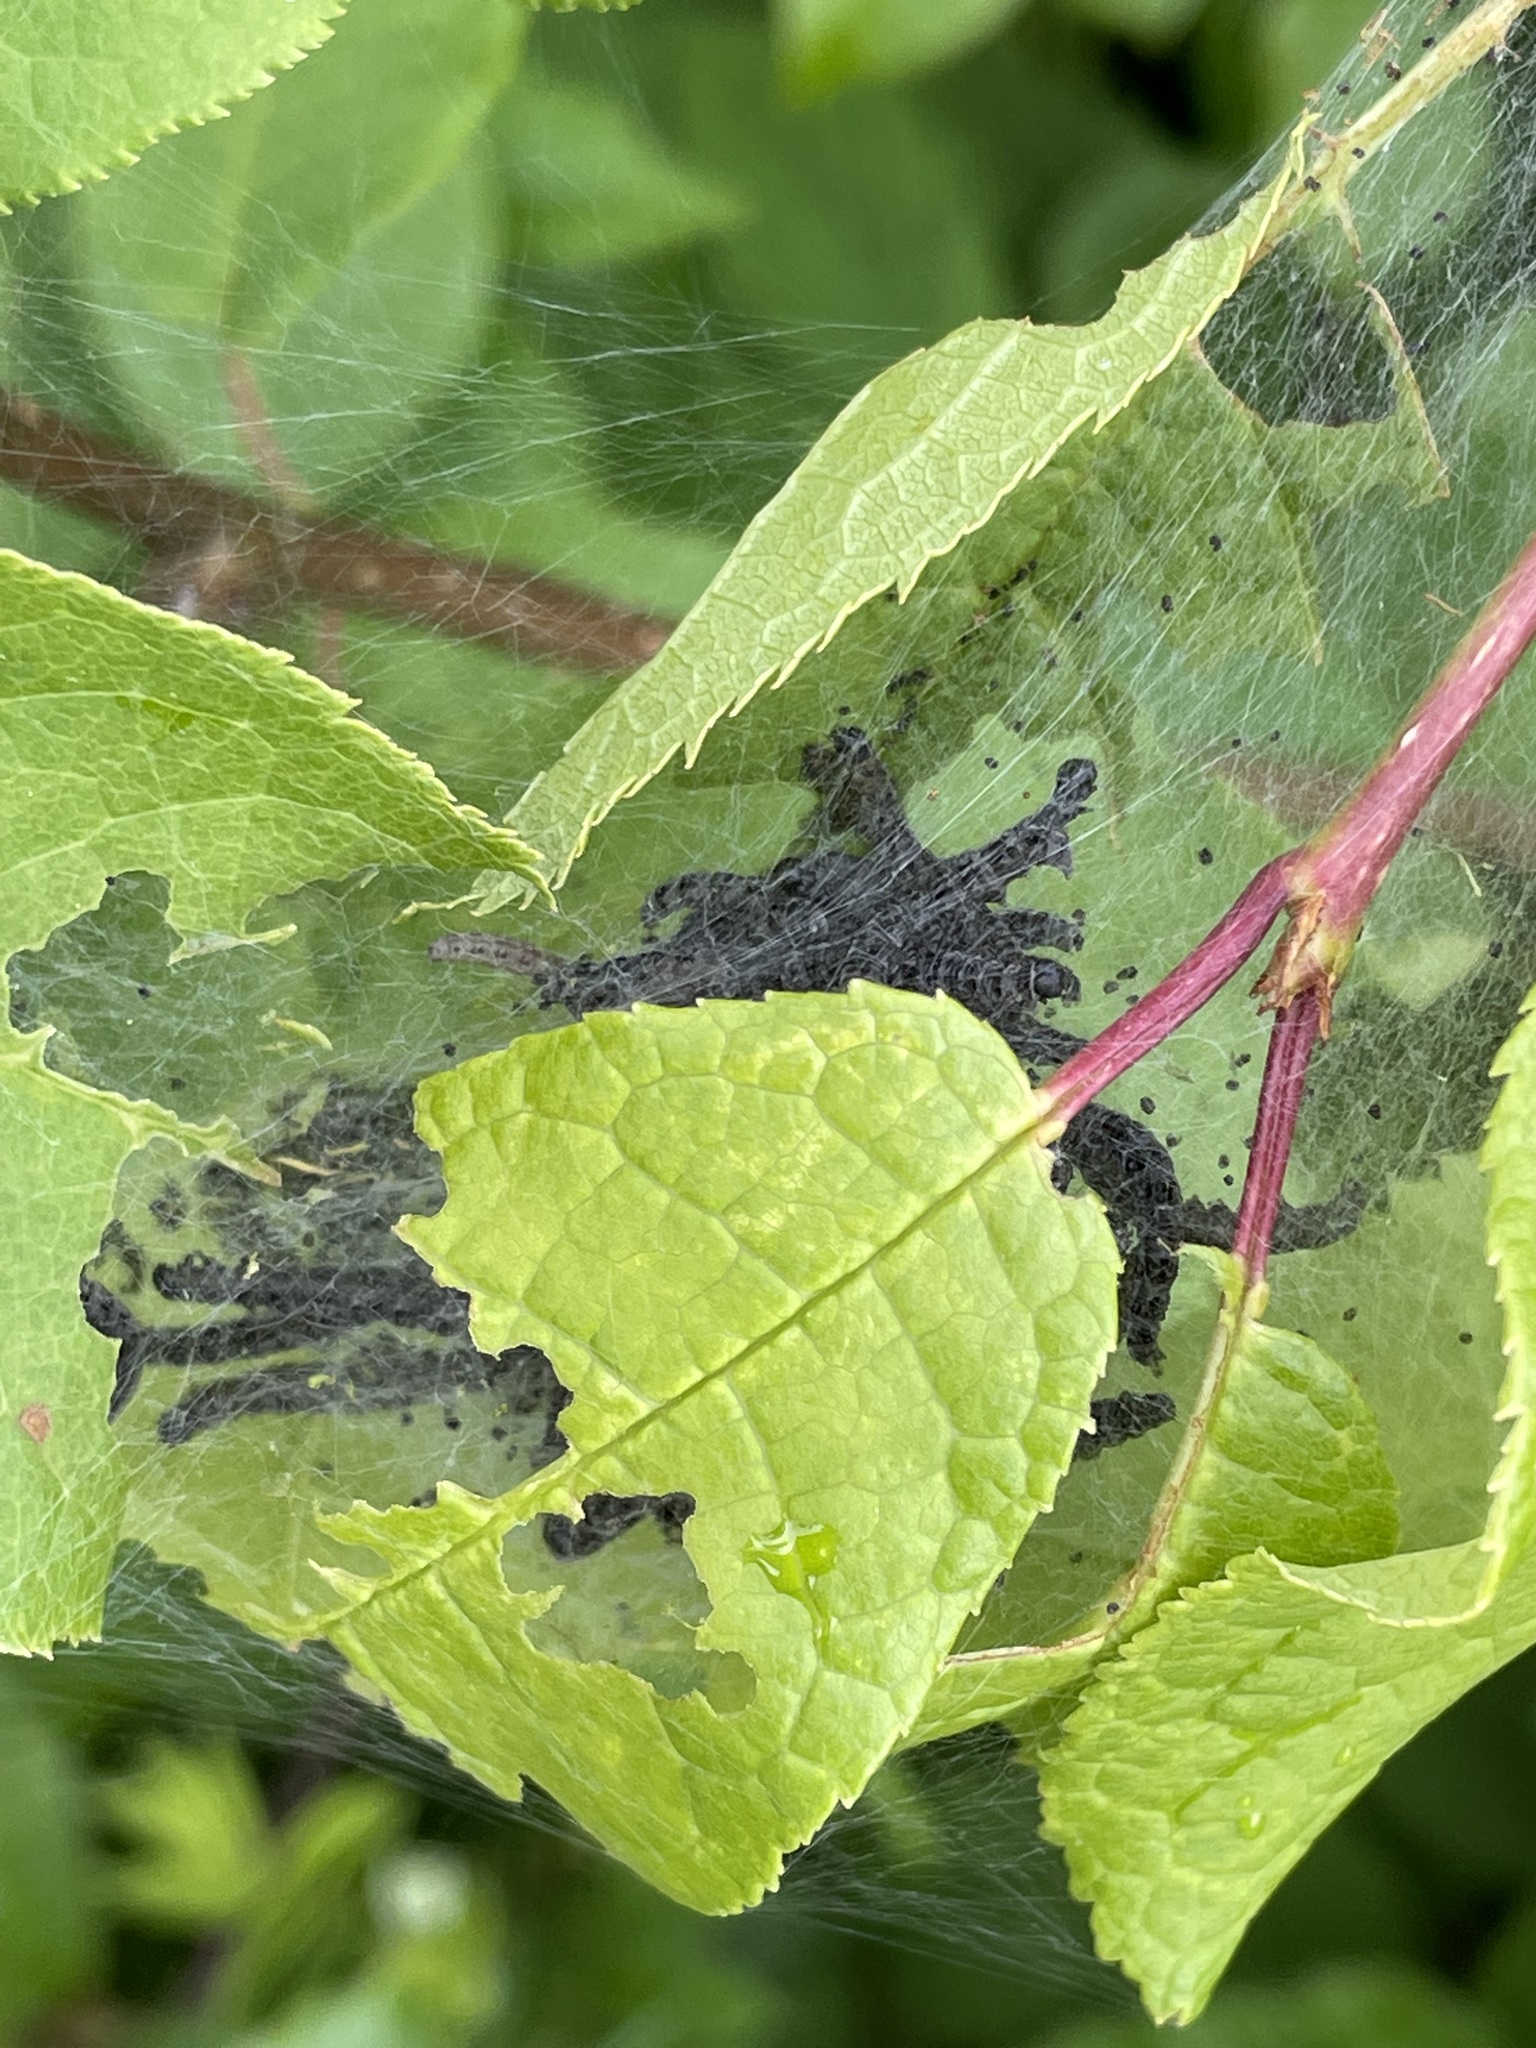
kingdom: Animalia
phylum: Arthropoda
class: Insecta
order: Lepidoptera
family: Yponomeutidae
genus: Yponomeuta
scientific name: Yponomeuta evonymella
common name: Bird-cherry ermine
